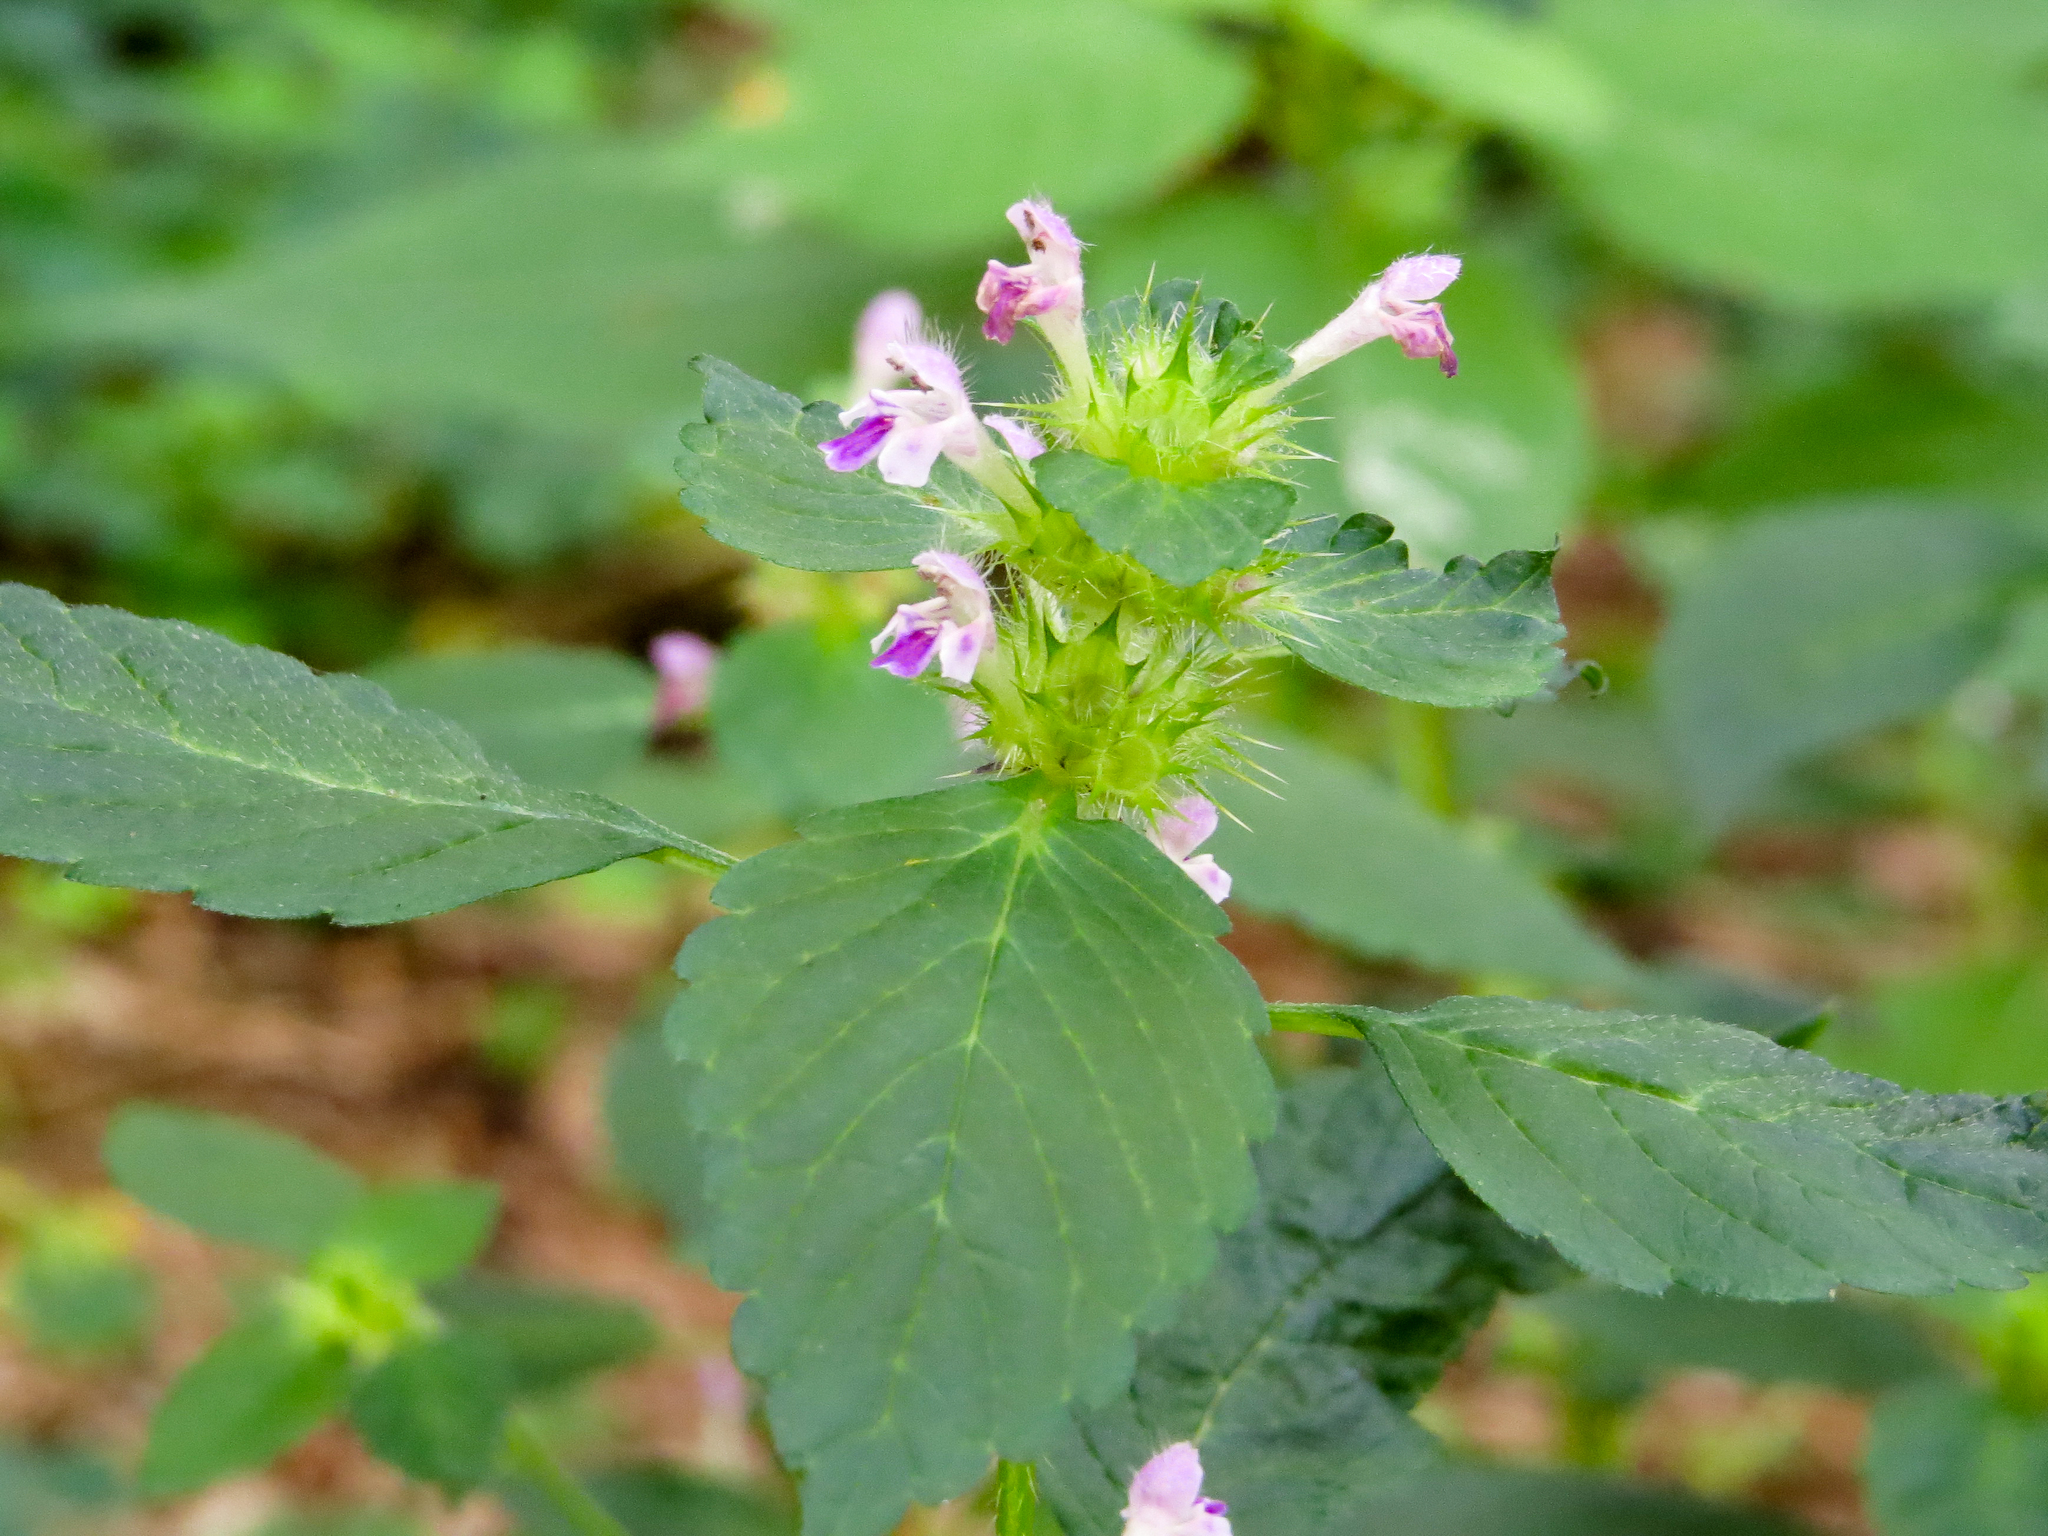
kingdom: Plantae
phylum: Tracheophyta
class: Magnoliopsida
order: Lamiales
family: Lamiaceae
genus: Galeopsis
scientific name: Galeopsis bifida
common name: Bifid hemp-nettle
